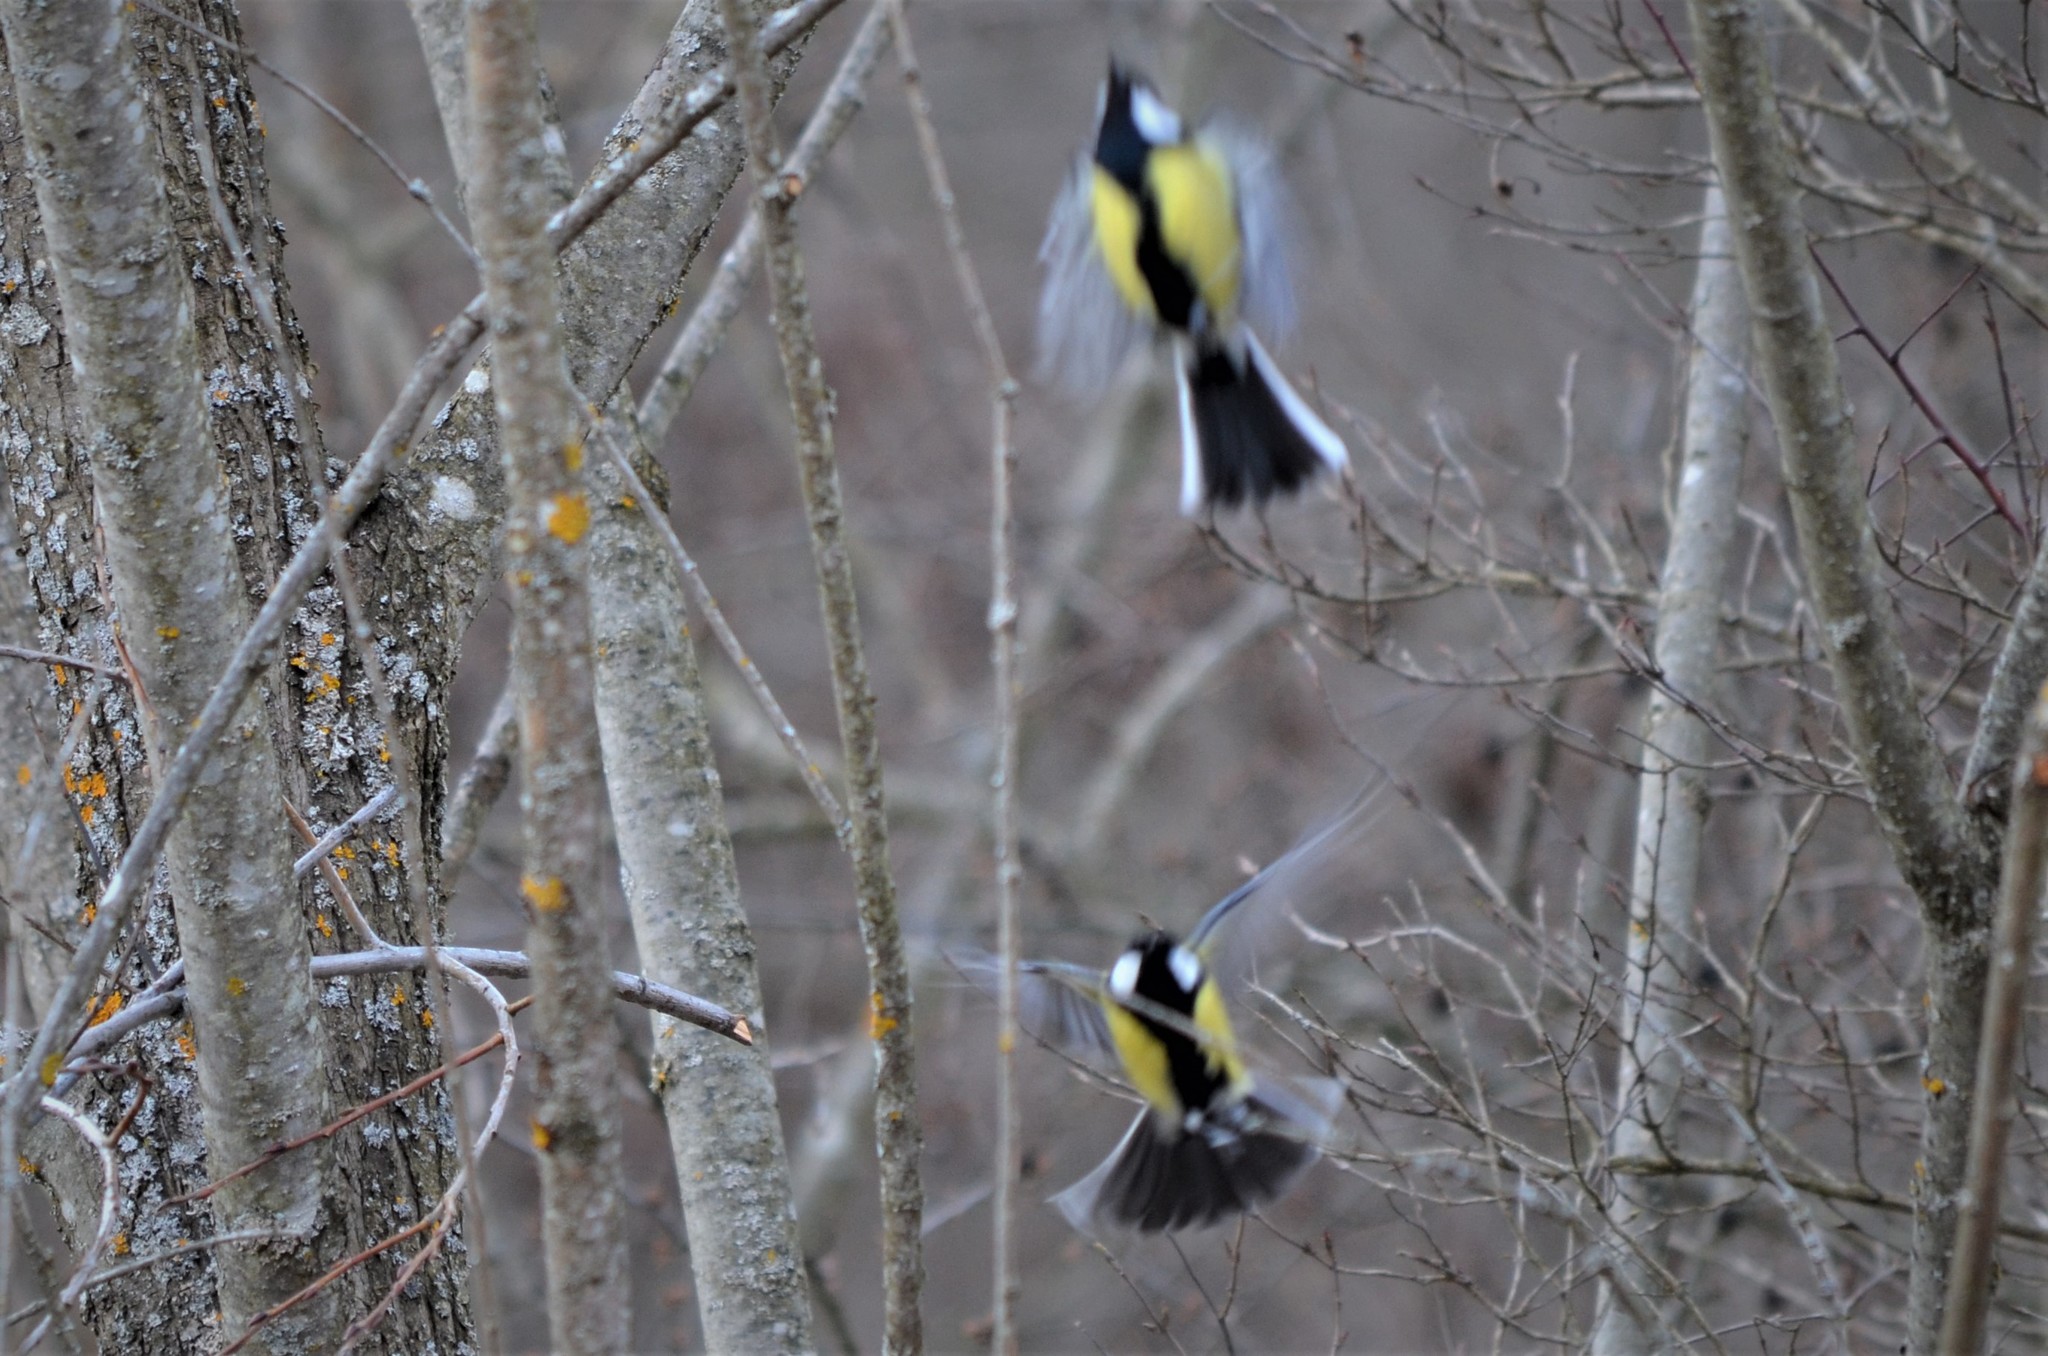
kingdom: Animalia
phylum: Chordata
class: Aves
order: Passeriformes
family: Paridae
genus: Parus
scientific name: Parus major
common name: Great tit
